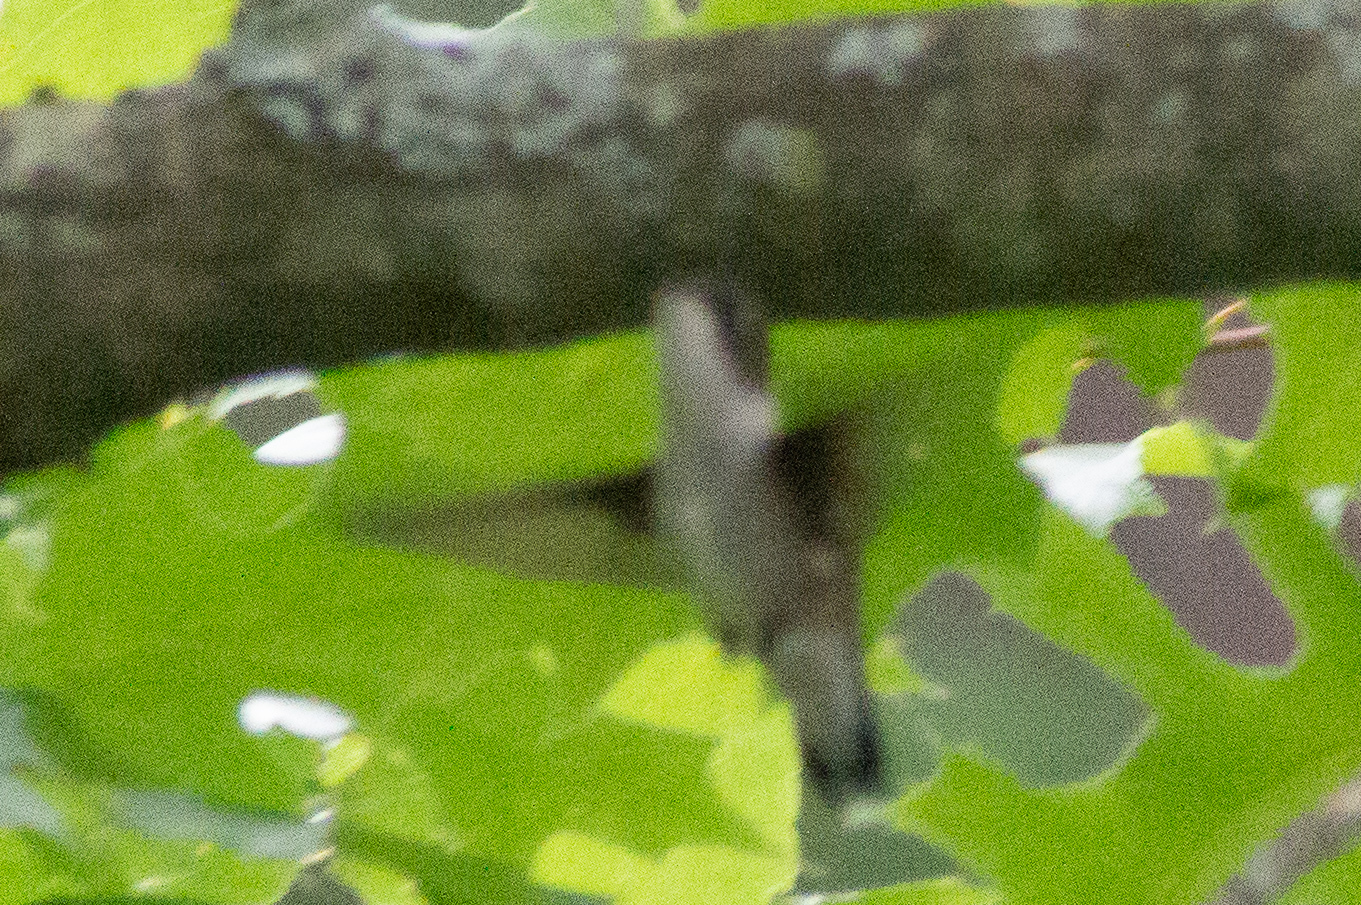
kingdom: Animalia
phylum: Chordata
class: Aves
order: Apodiformes
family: Trochilidae
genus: Archilochus
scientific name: Archilochus colubris
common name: Ruby-throated hummingbird
